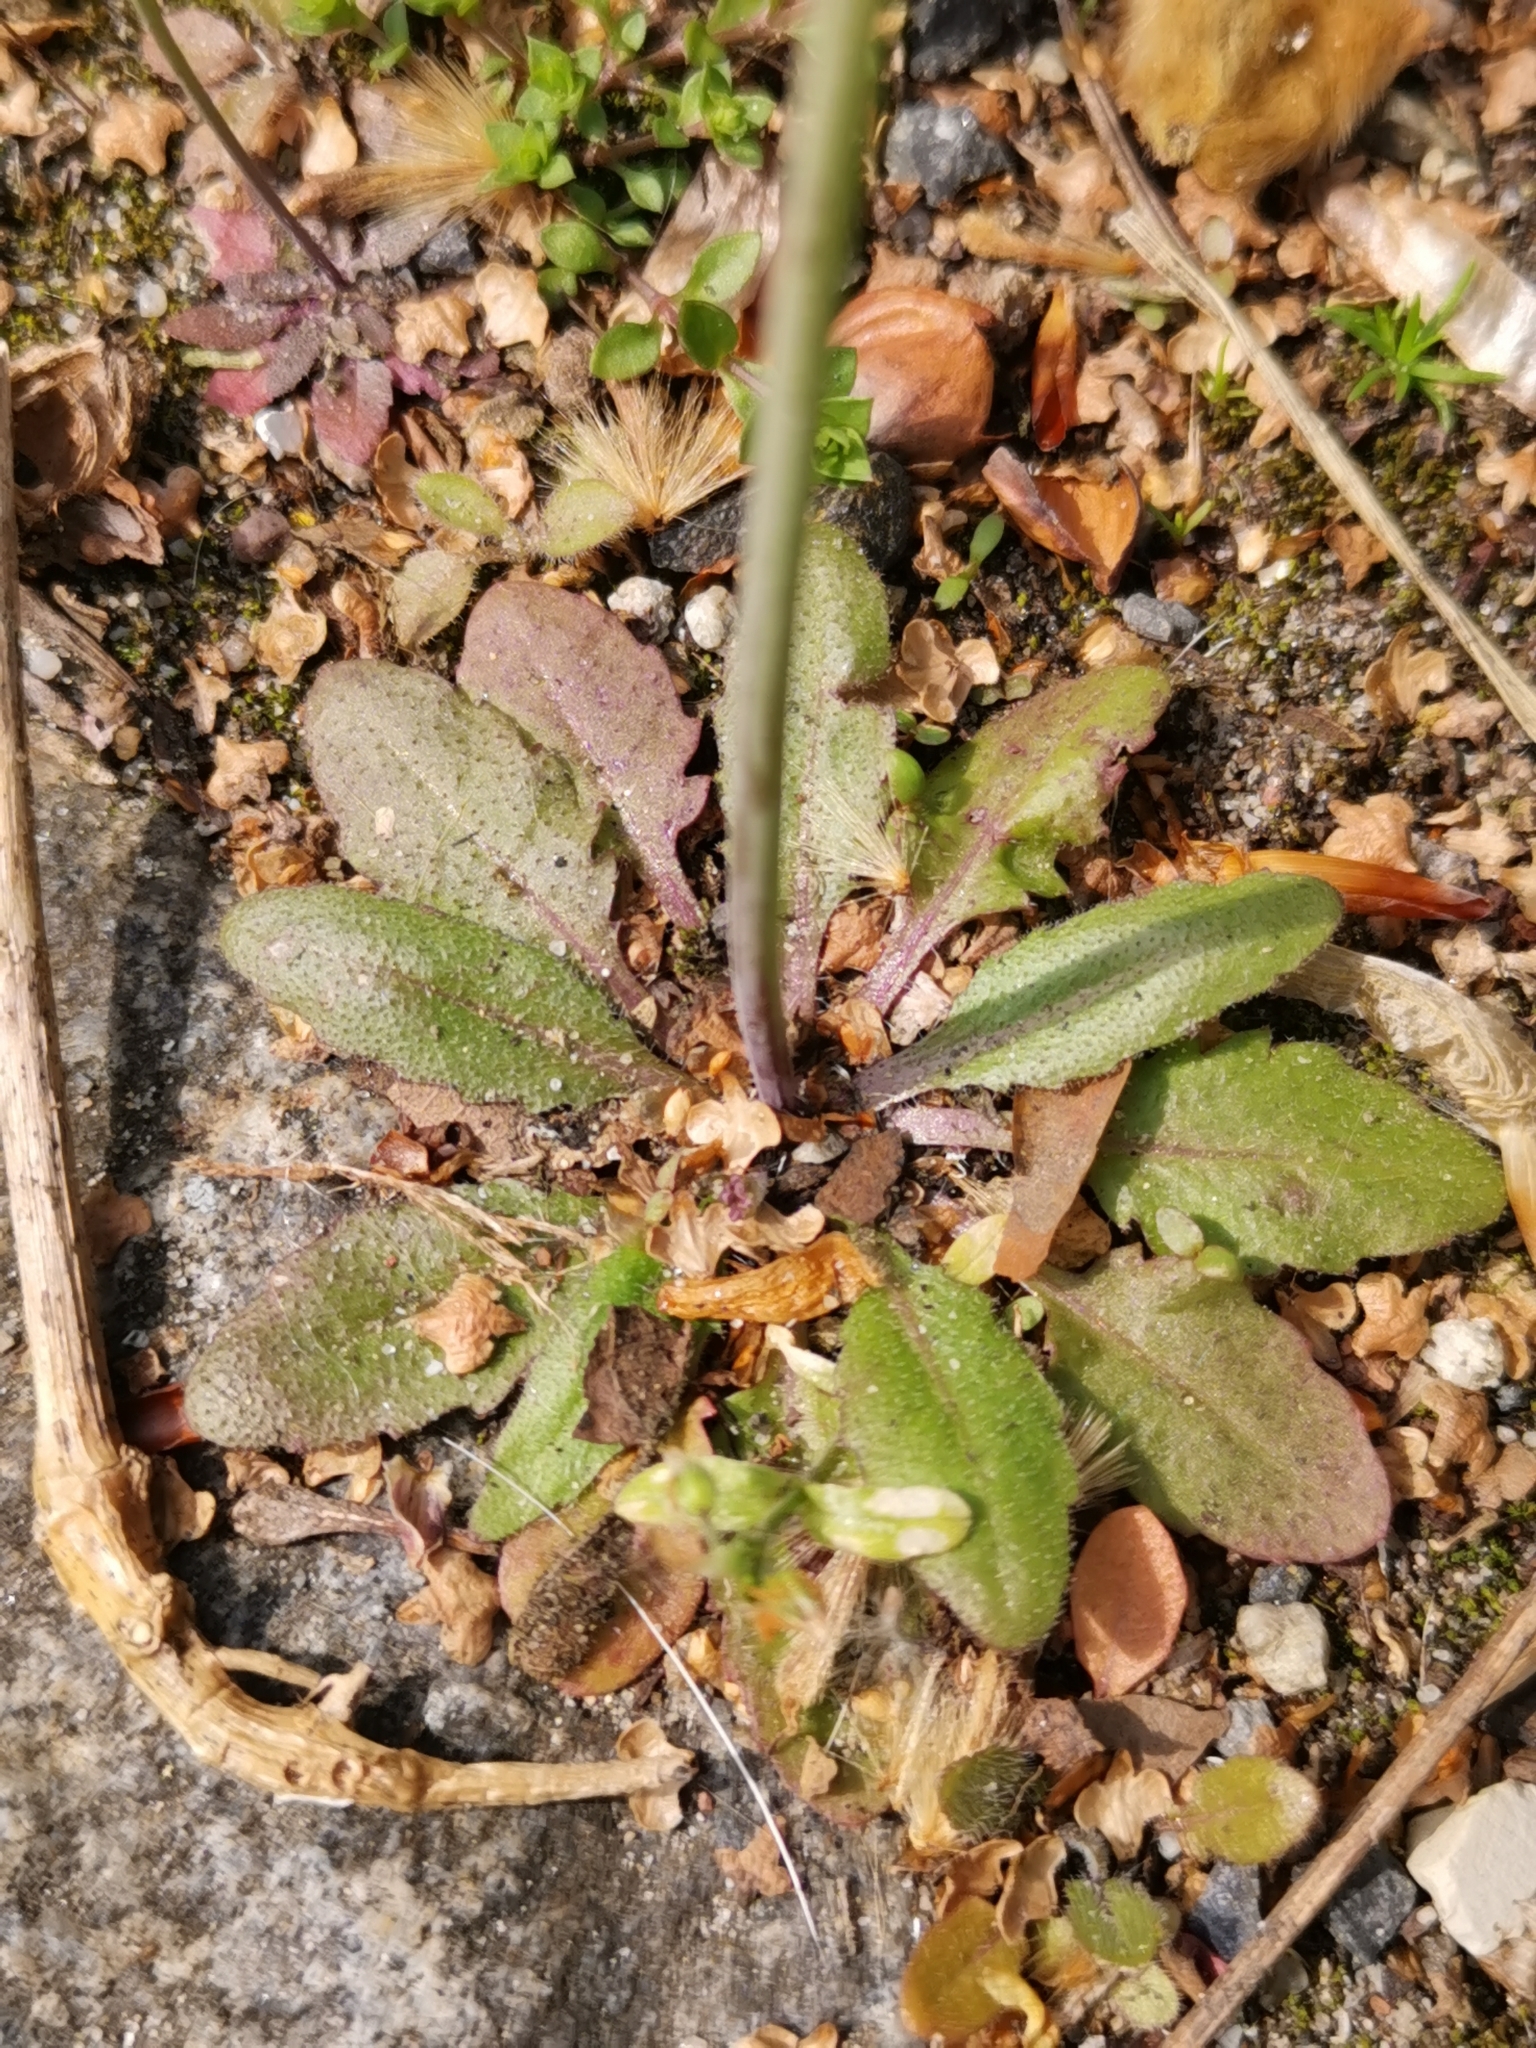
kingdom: Plantae
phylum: Tracheophyta
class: Magnoliopsida
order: Brassicales
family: Brassicaceae
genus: Arabidopsis
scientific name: Arabidopsis thaliana
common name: Thale cress
